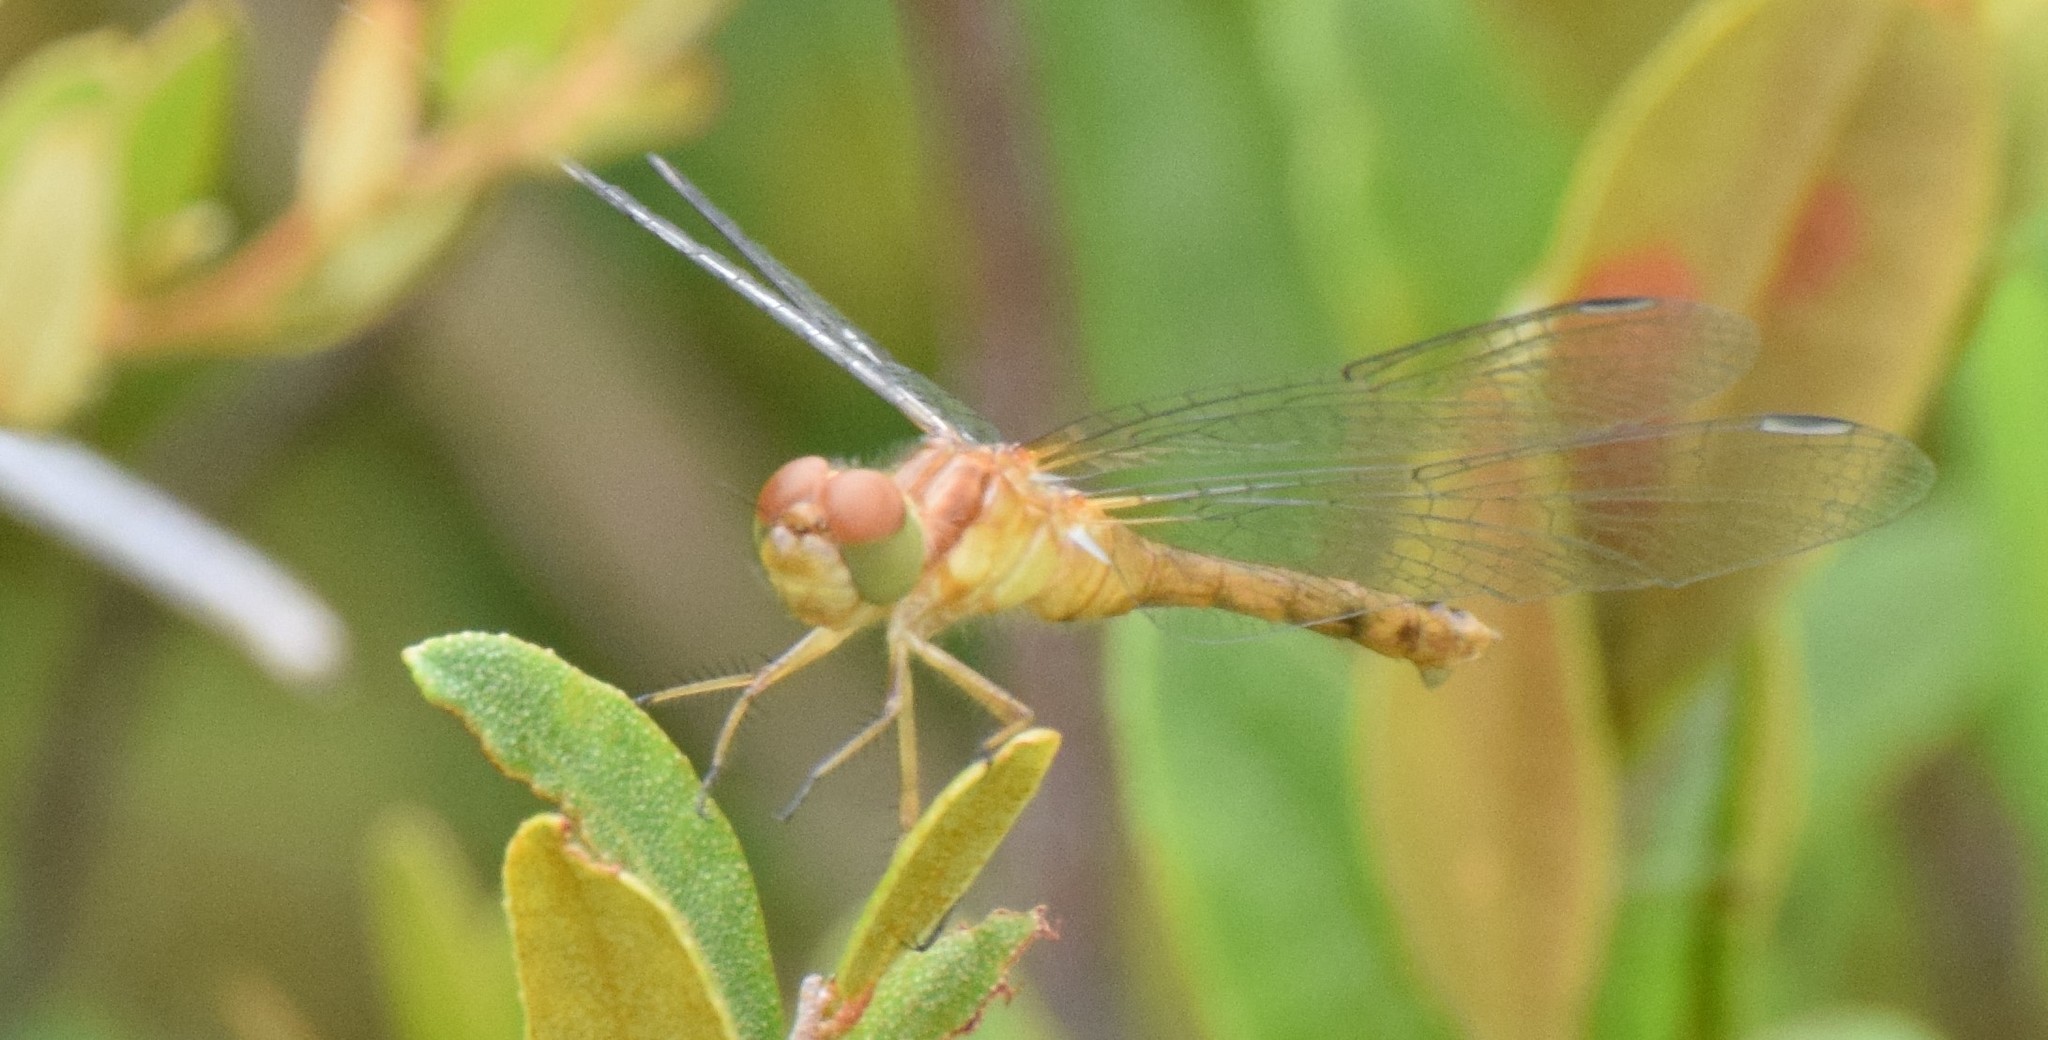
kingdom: Animalia
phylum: Arthropoda
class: Insecta
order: Odonata
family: Libellulidae
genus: Sympetrum
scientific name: Sympetrum vicinum
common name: Autumn meadowhawk
